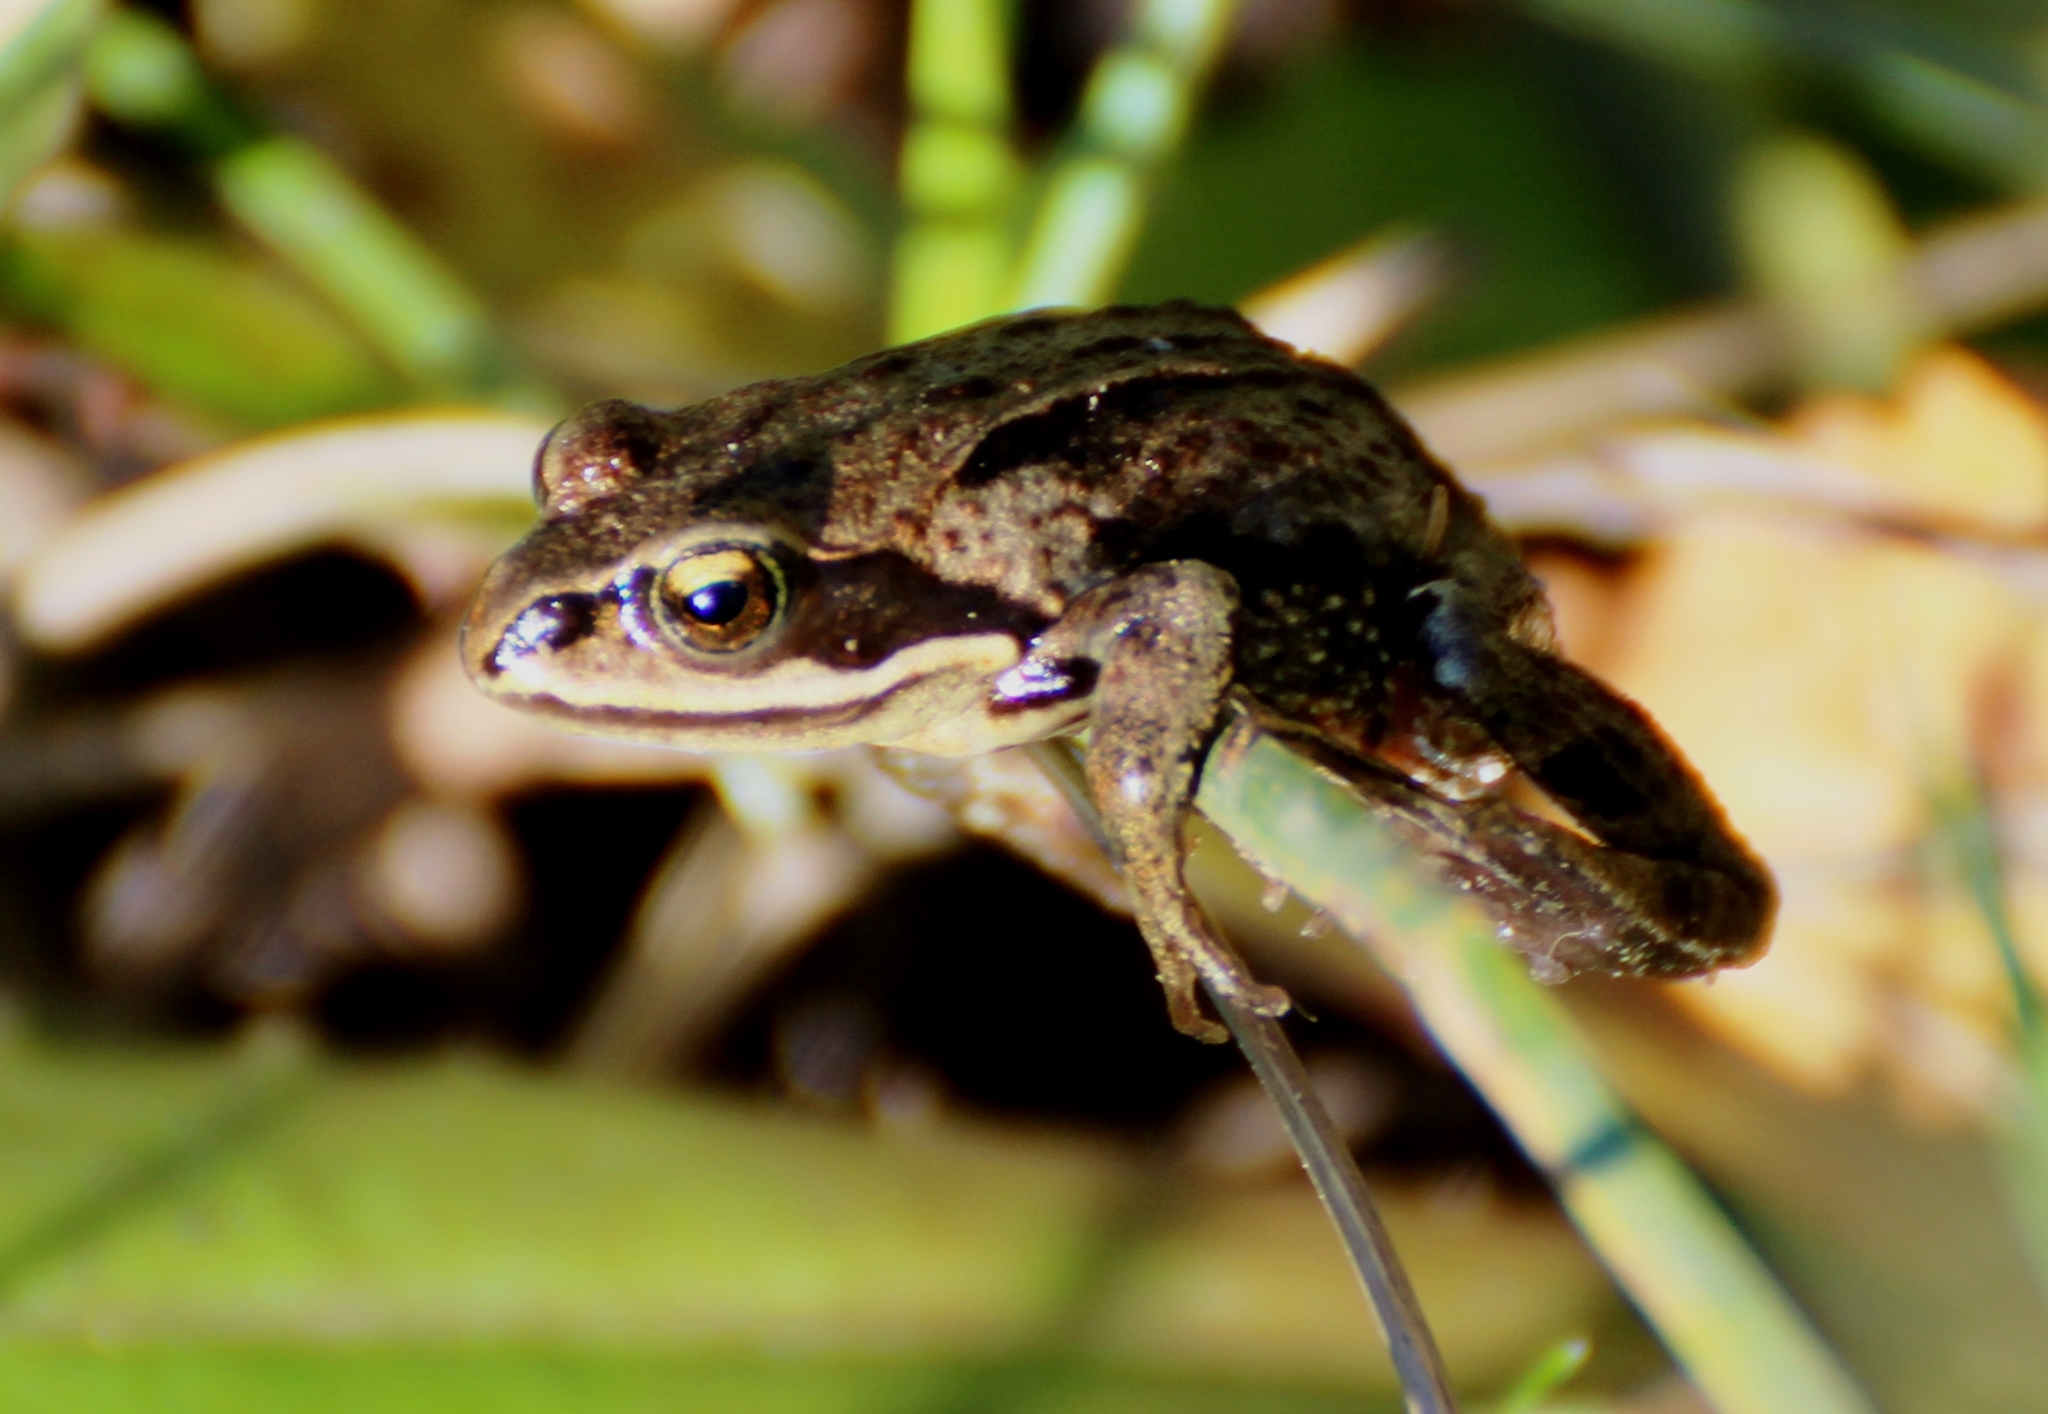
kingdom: Animalia
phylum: Chordata
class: Amphibia
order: Anura
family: Ranidae
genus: Rana
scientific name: Rana amurensis
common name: Amur brown frog
